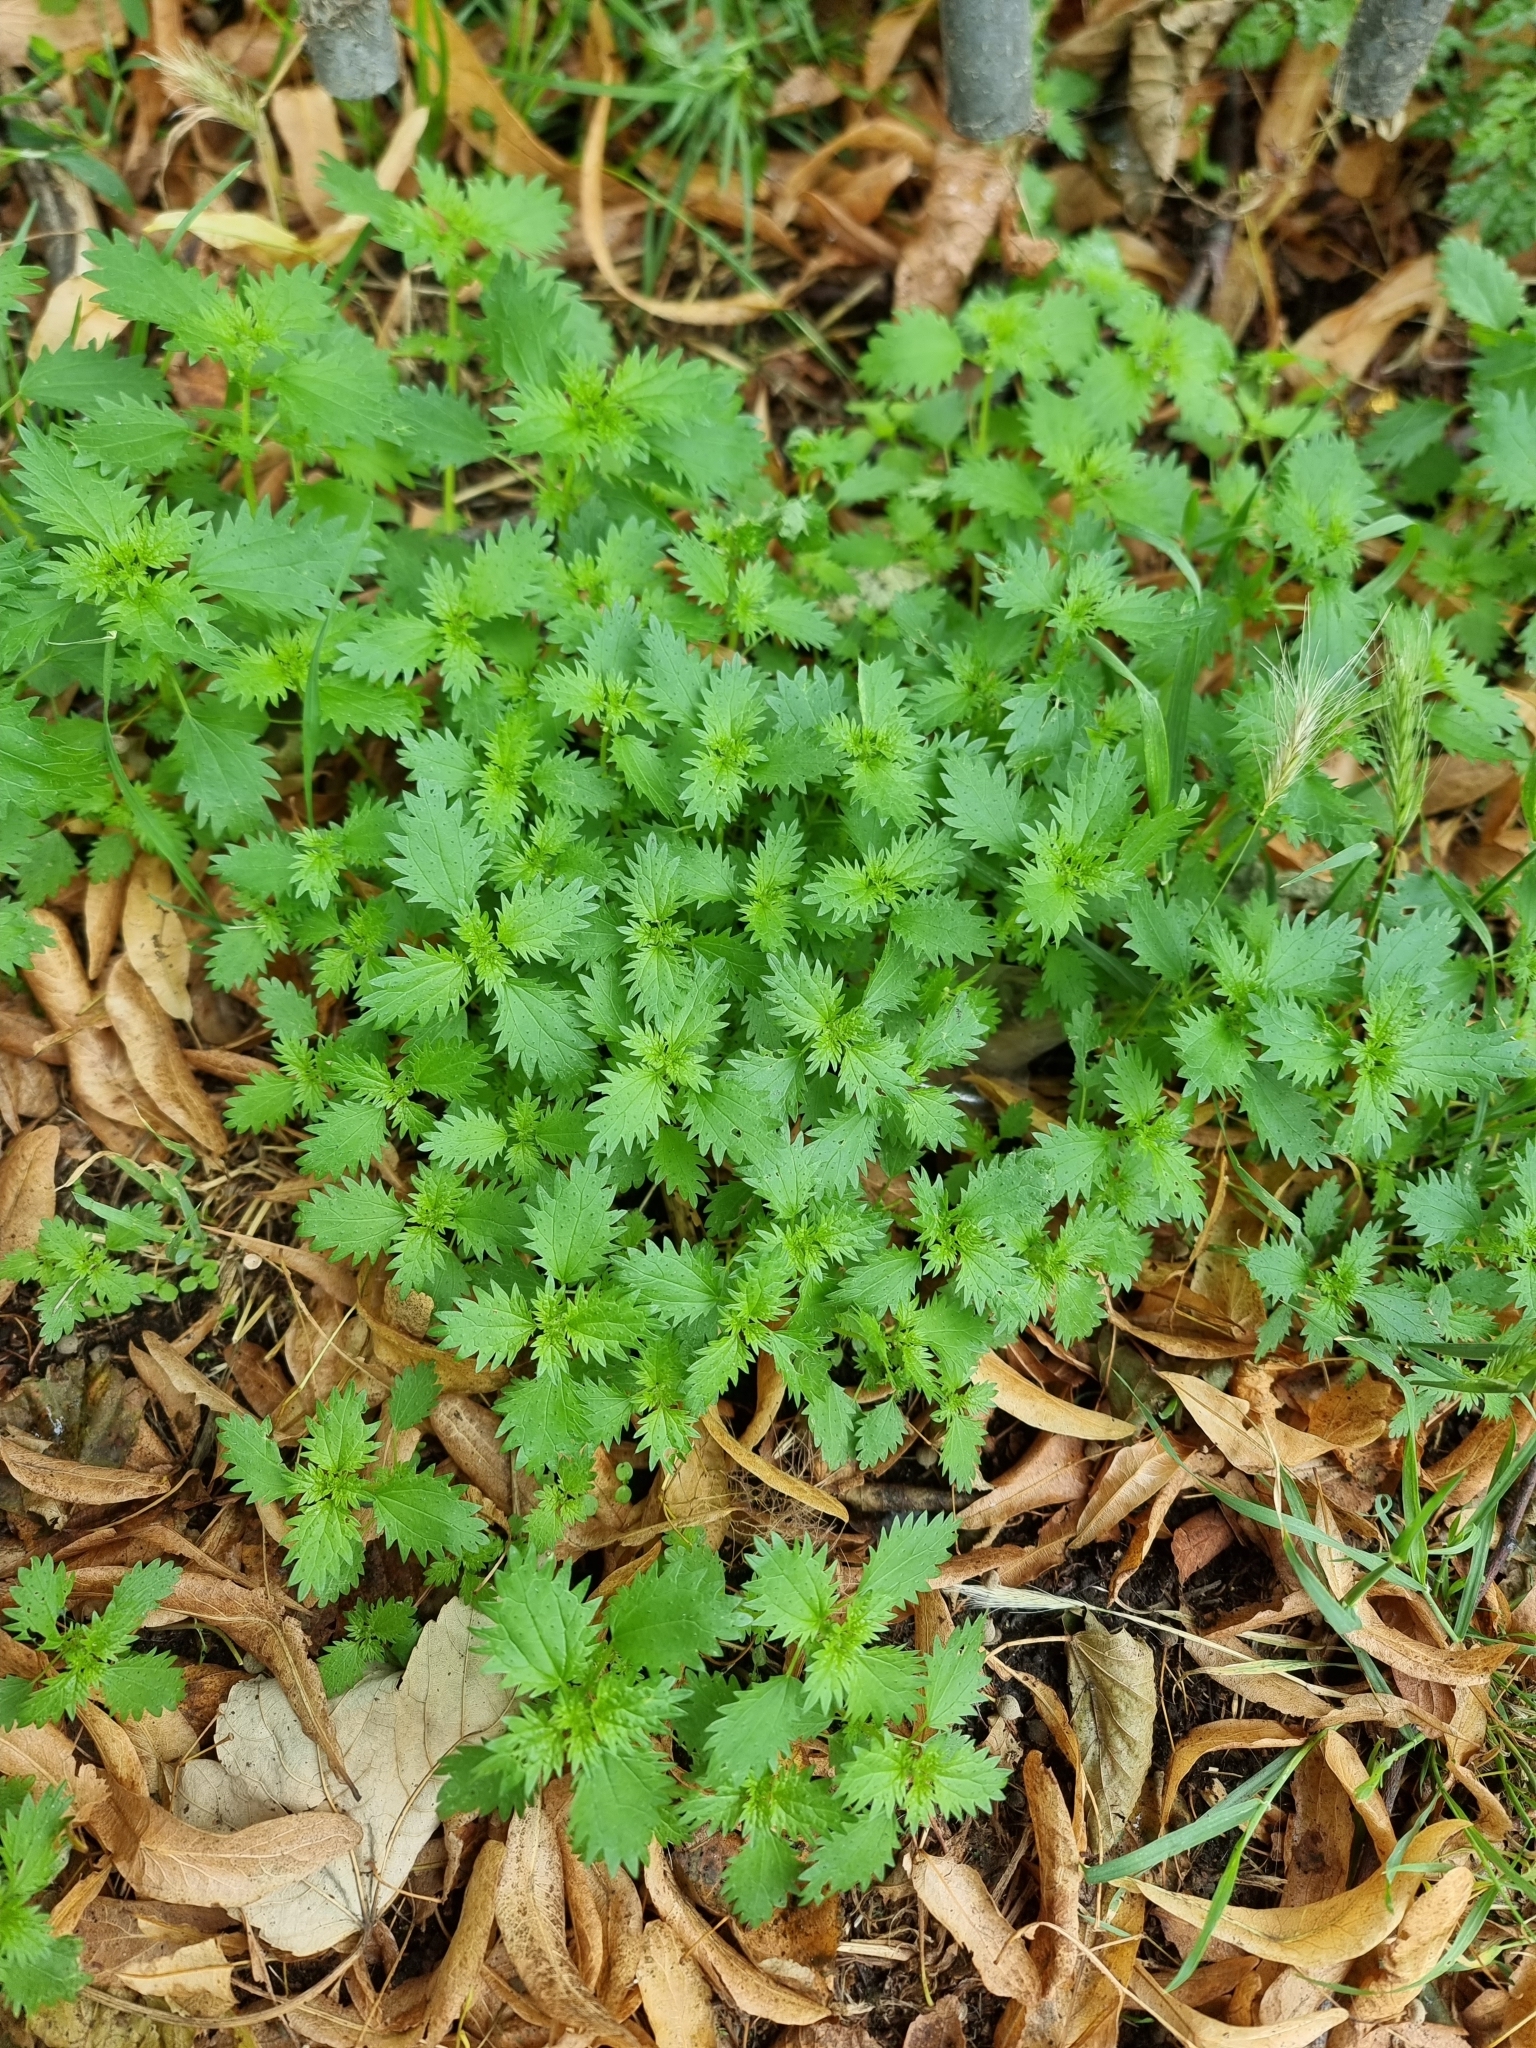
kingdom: Plantae
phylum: Tracheophyta
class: Magnoliopsida
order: Rosales
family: Urticaceae
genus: Urtica
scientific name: Urtica urens
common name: Dwarf nettle
